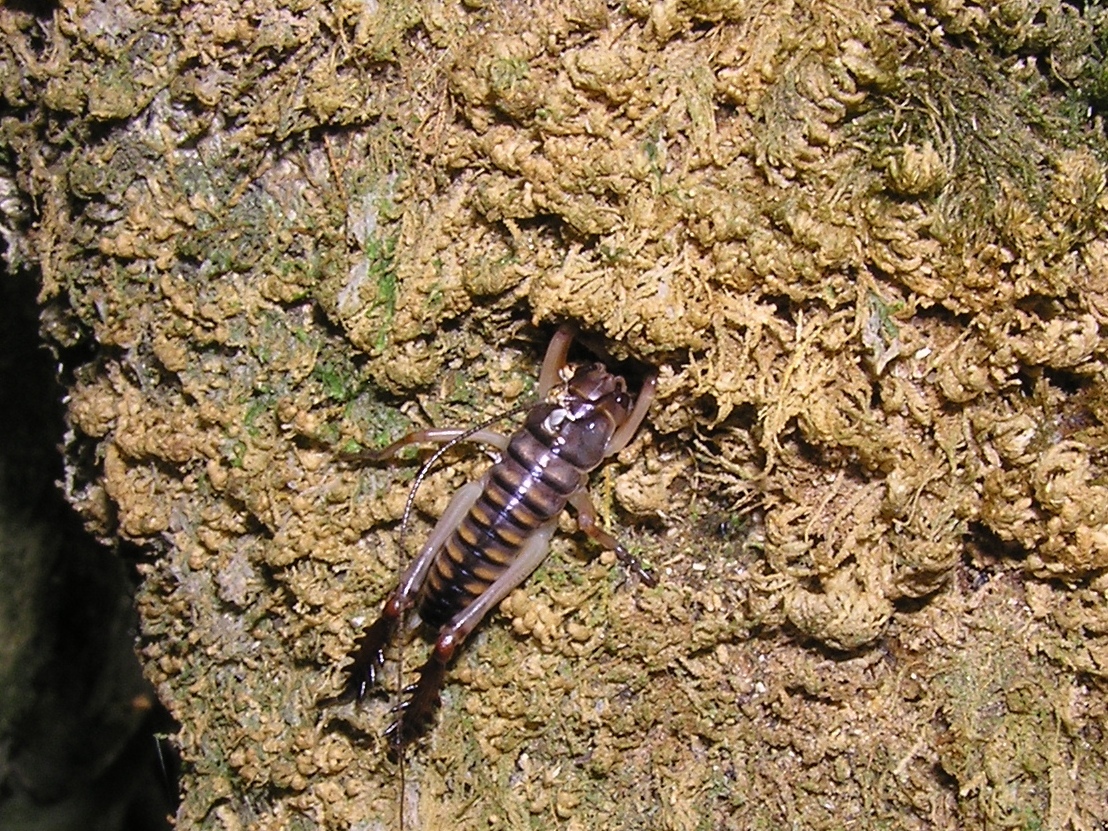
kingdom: Animalia
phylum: Arthropoda
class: Insecta
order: Orthoptera
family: Anostostomatidae
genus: Hemideina
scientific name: Hemideina crassidens
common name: Wellington tree weta
